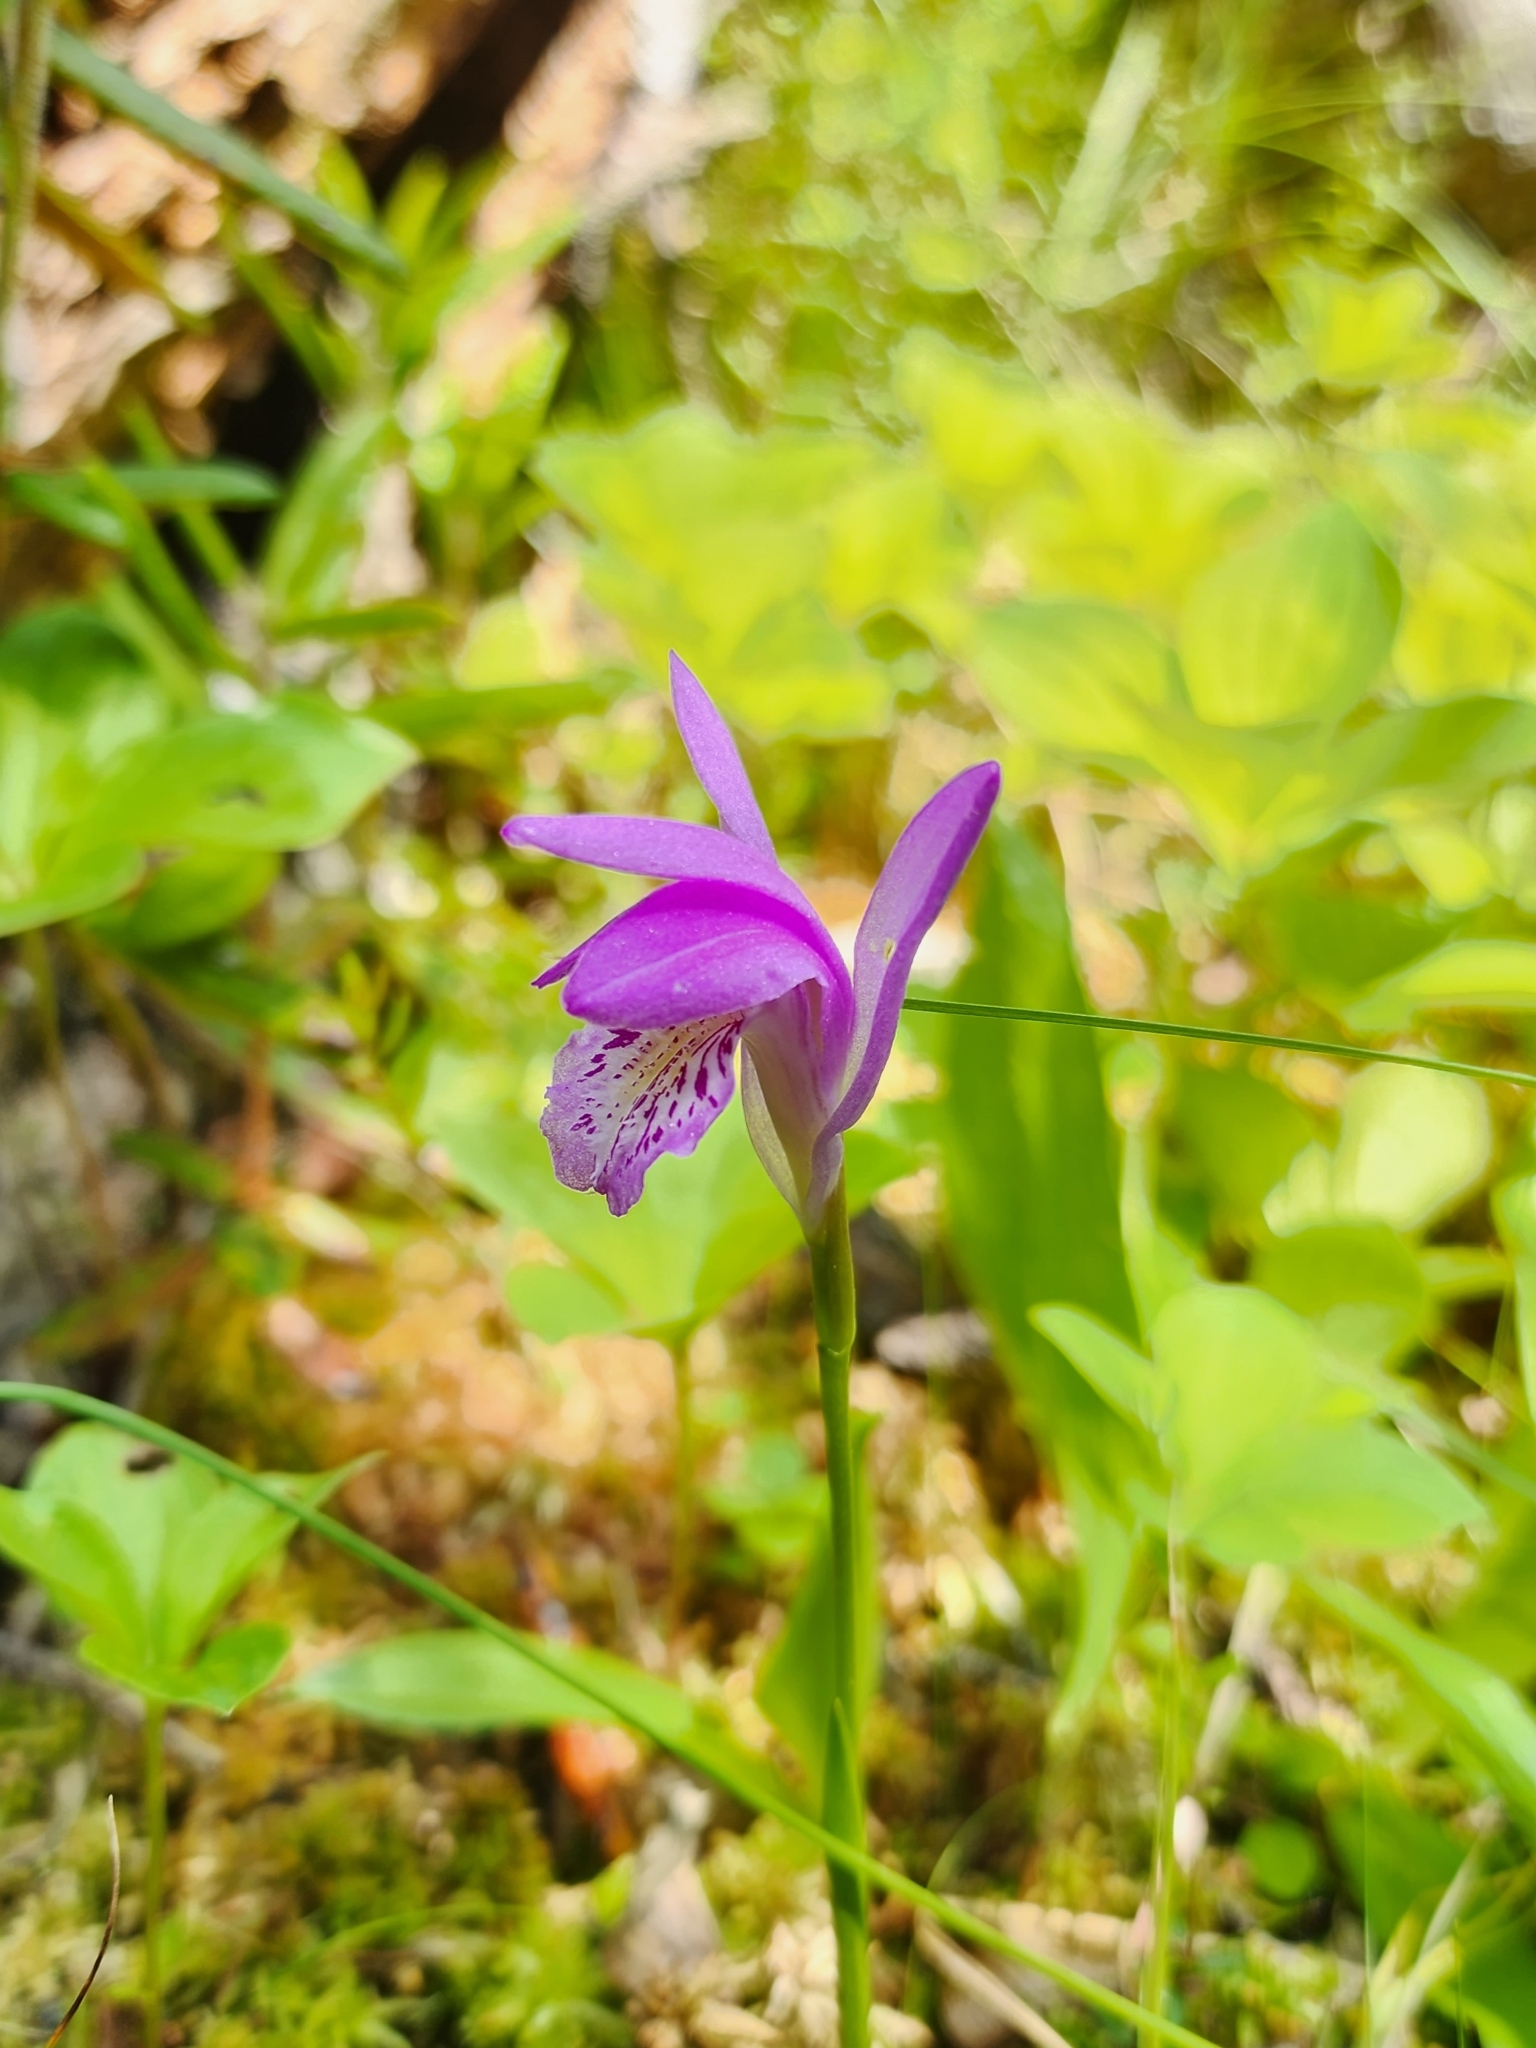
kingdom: Plantae
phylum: Tracheophyta
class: Liliopsida
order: Asparagales
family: Orchidaceae
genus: Arethusa
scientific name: Arethusa bulbosa
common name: Arethusa
